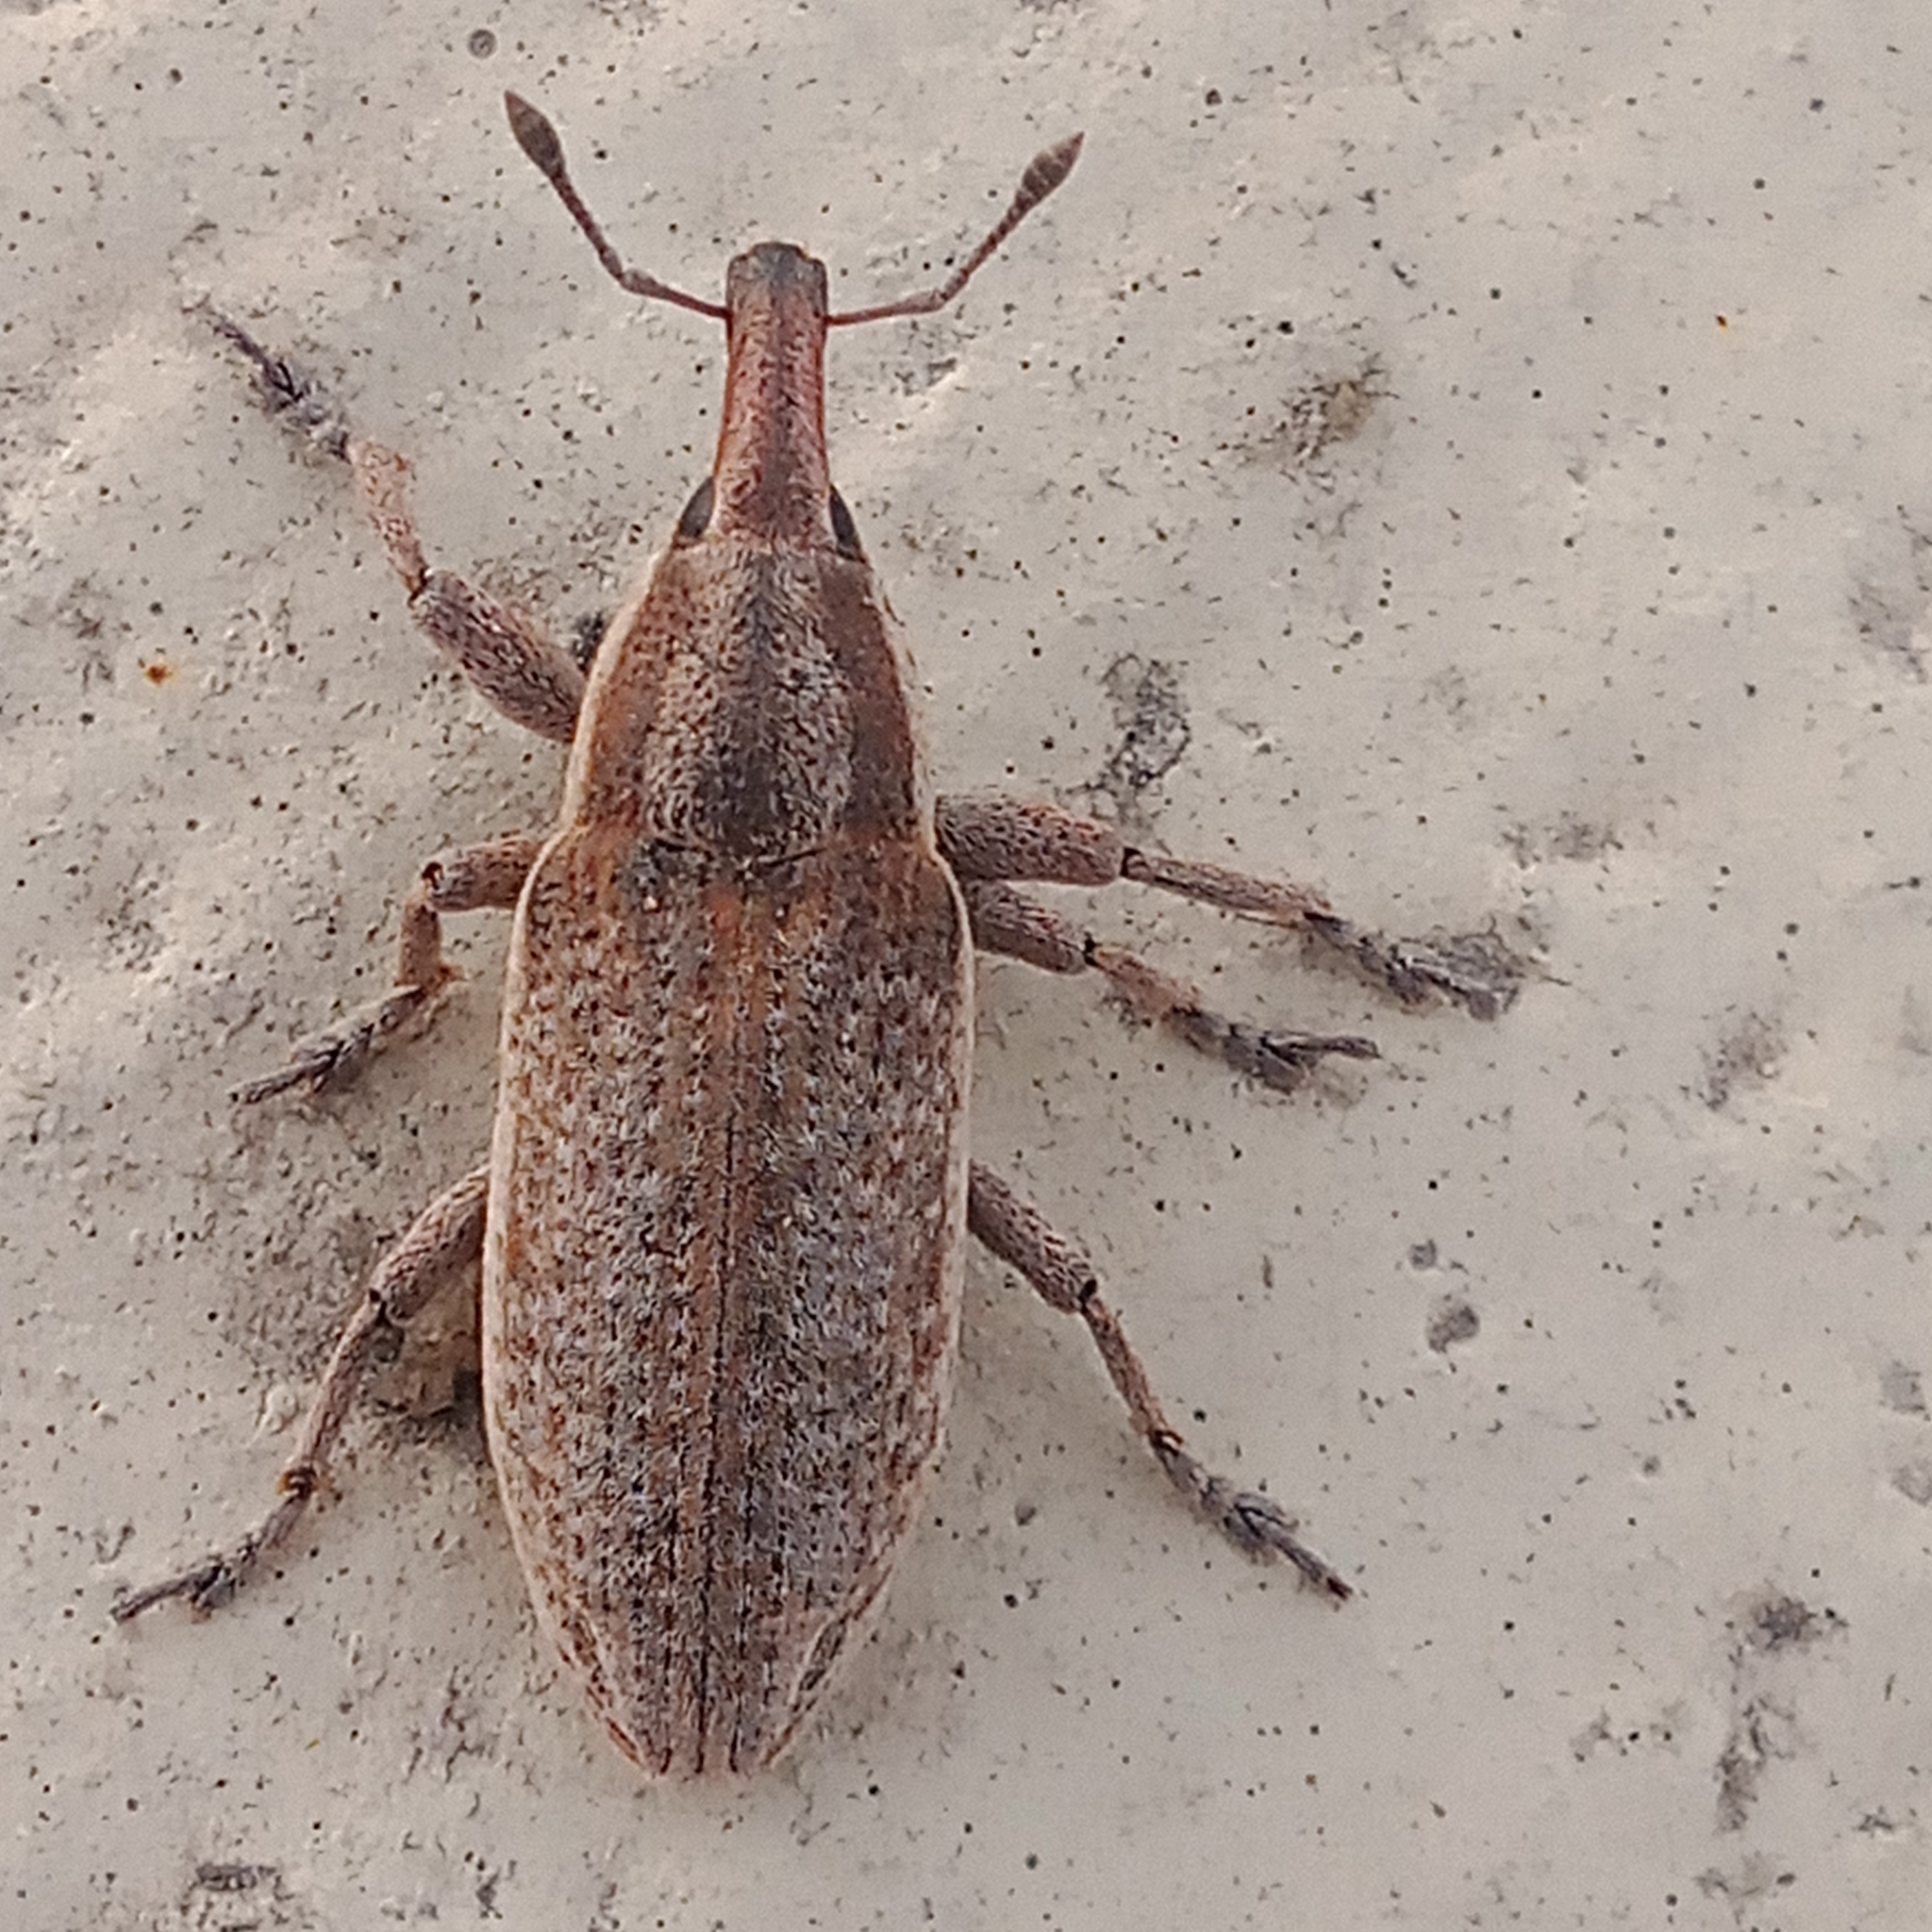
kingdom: Animalia
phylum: Arthropoda
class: Insecta
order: Coleoptera
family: Curculionidae
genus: Lixus
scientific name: Lixus myagri
